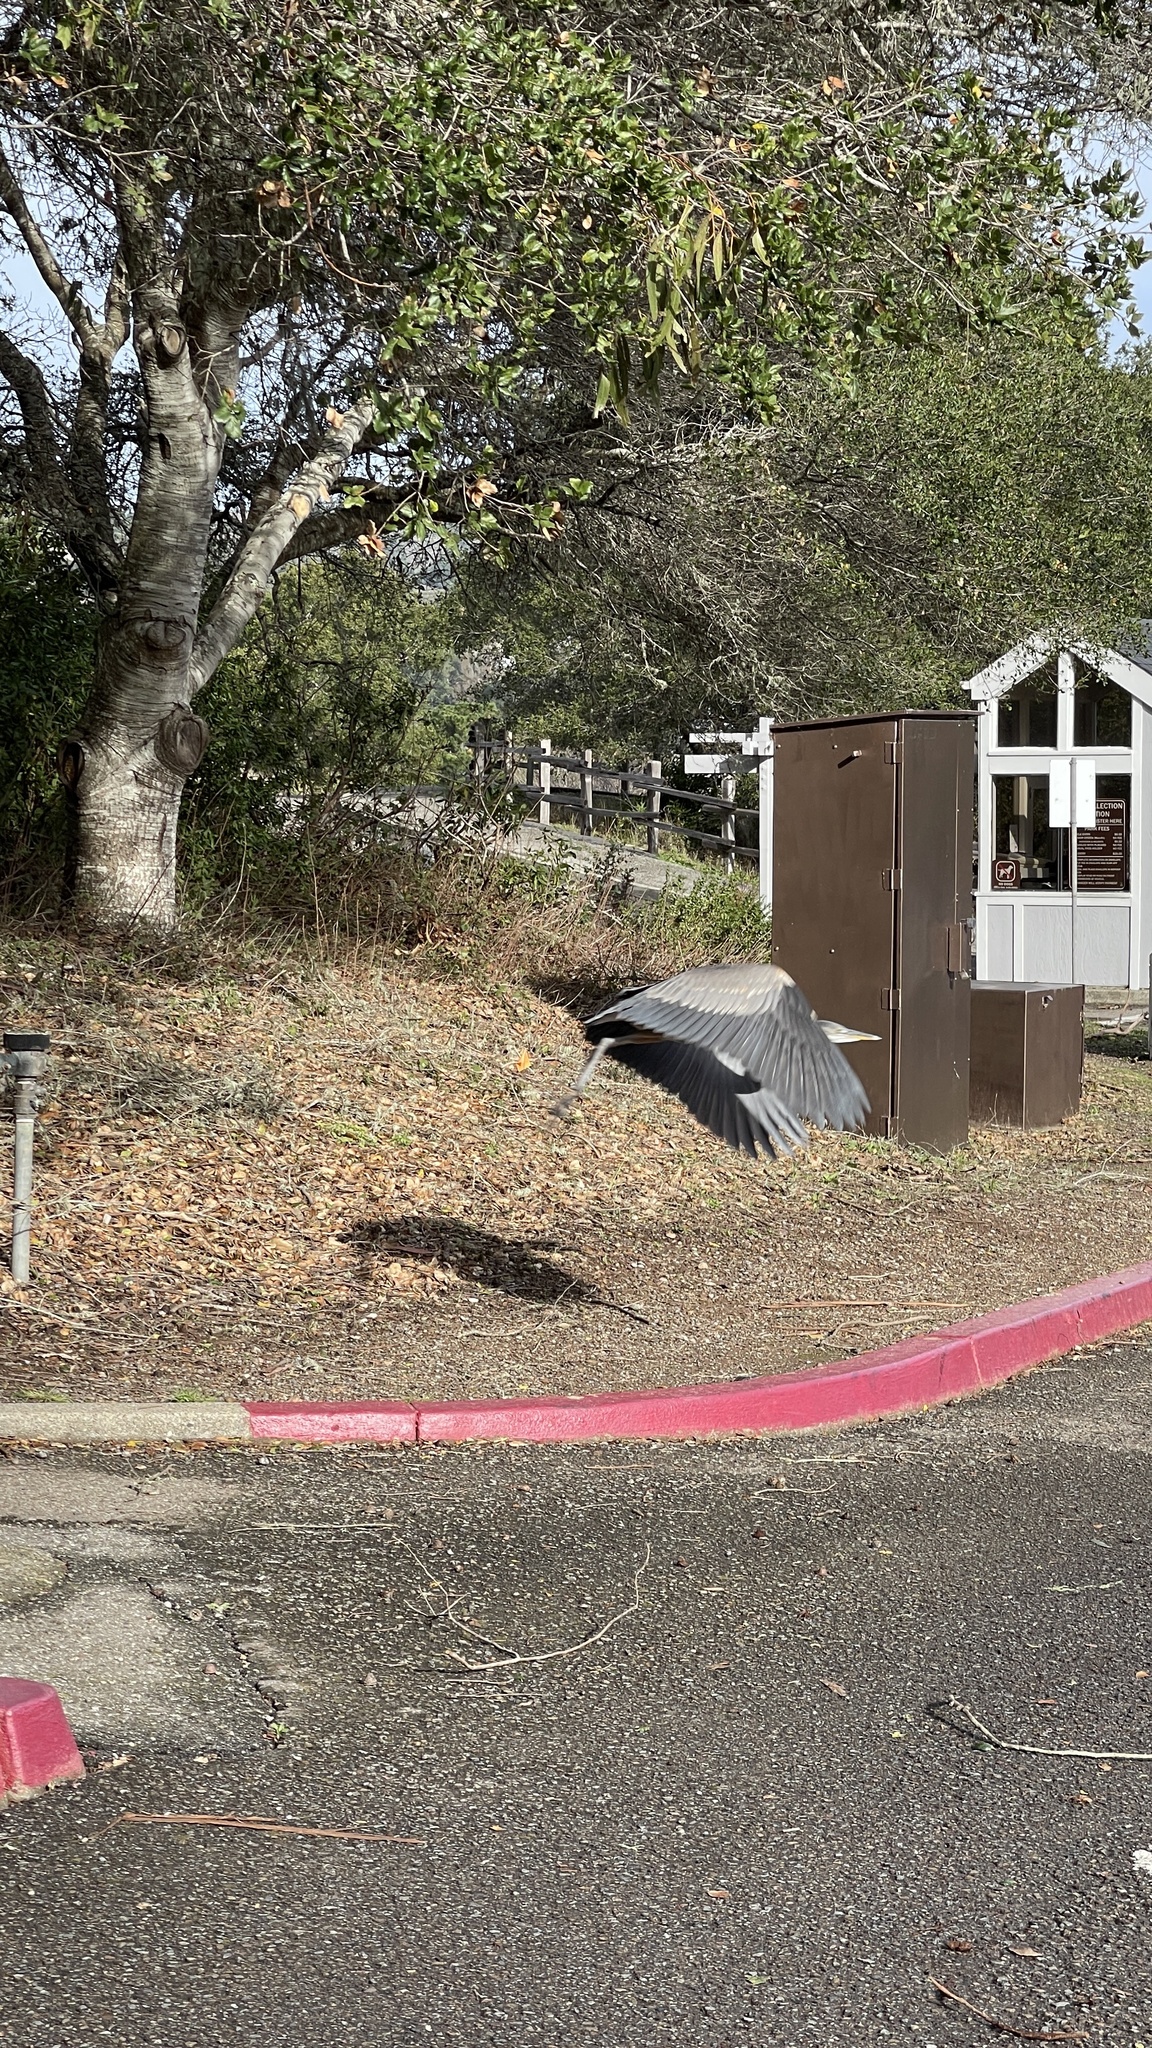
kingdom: Animalia
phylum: Chordata
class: Aves
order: Pelecaniformes
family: Ardeidae
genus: Ardea
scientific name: Ardea herodias
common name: Great blue heron
